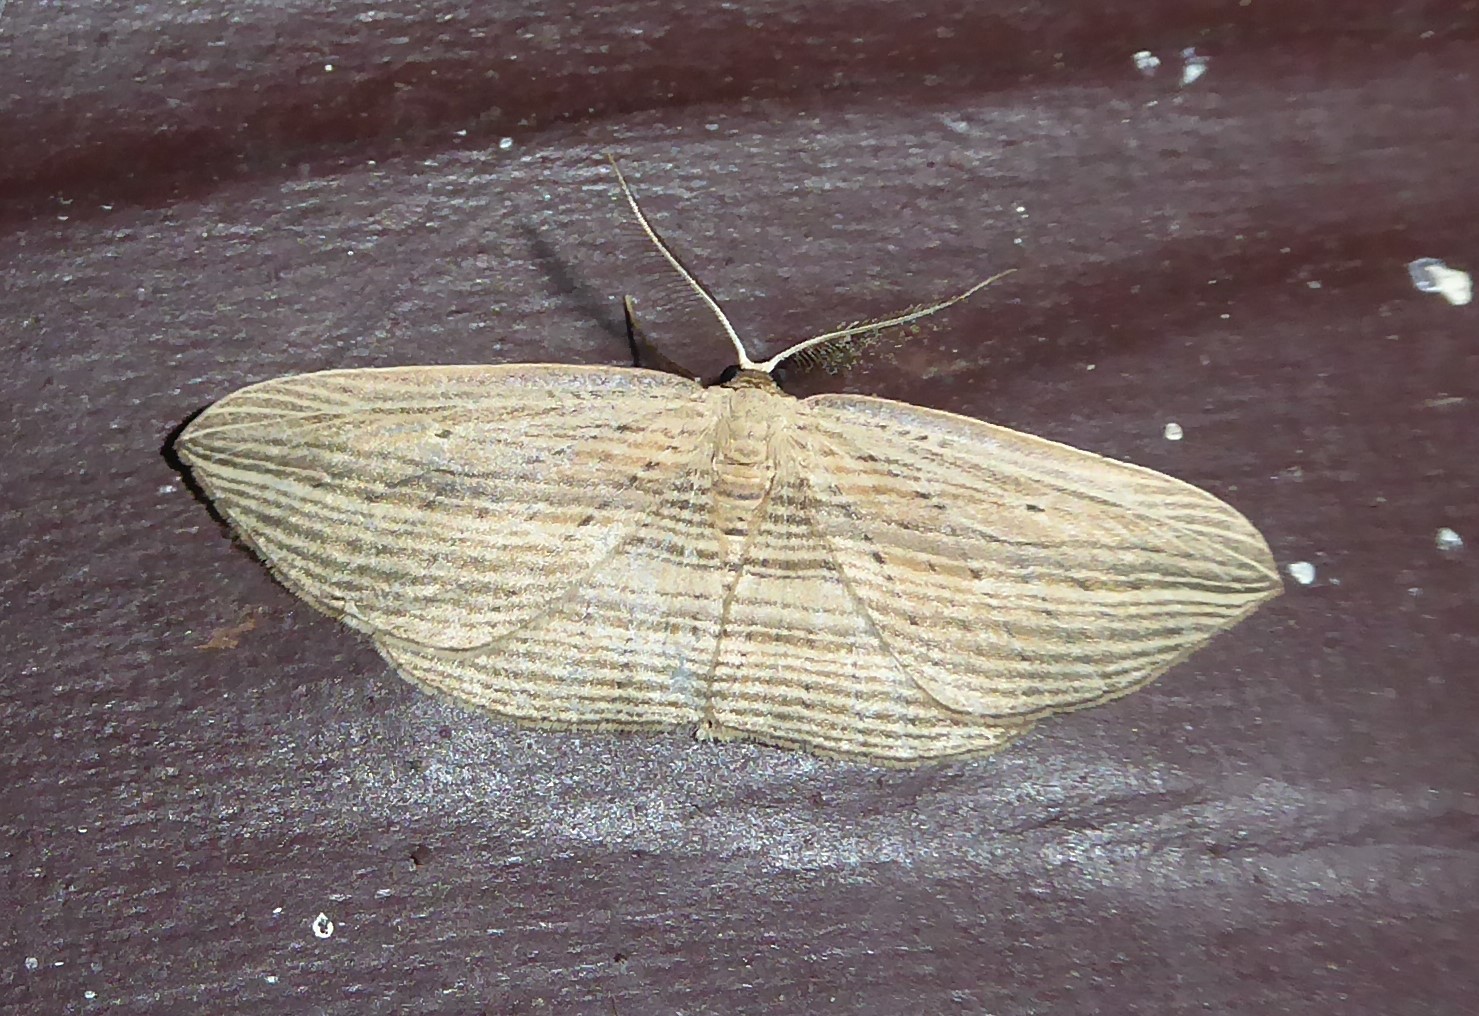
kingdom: Animalia
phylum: Arthropoda
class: Insecta
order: Lepidoptera
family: Geometridae
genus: Epiphryne
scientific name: Epiphryne verriculata
